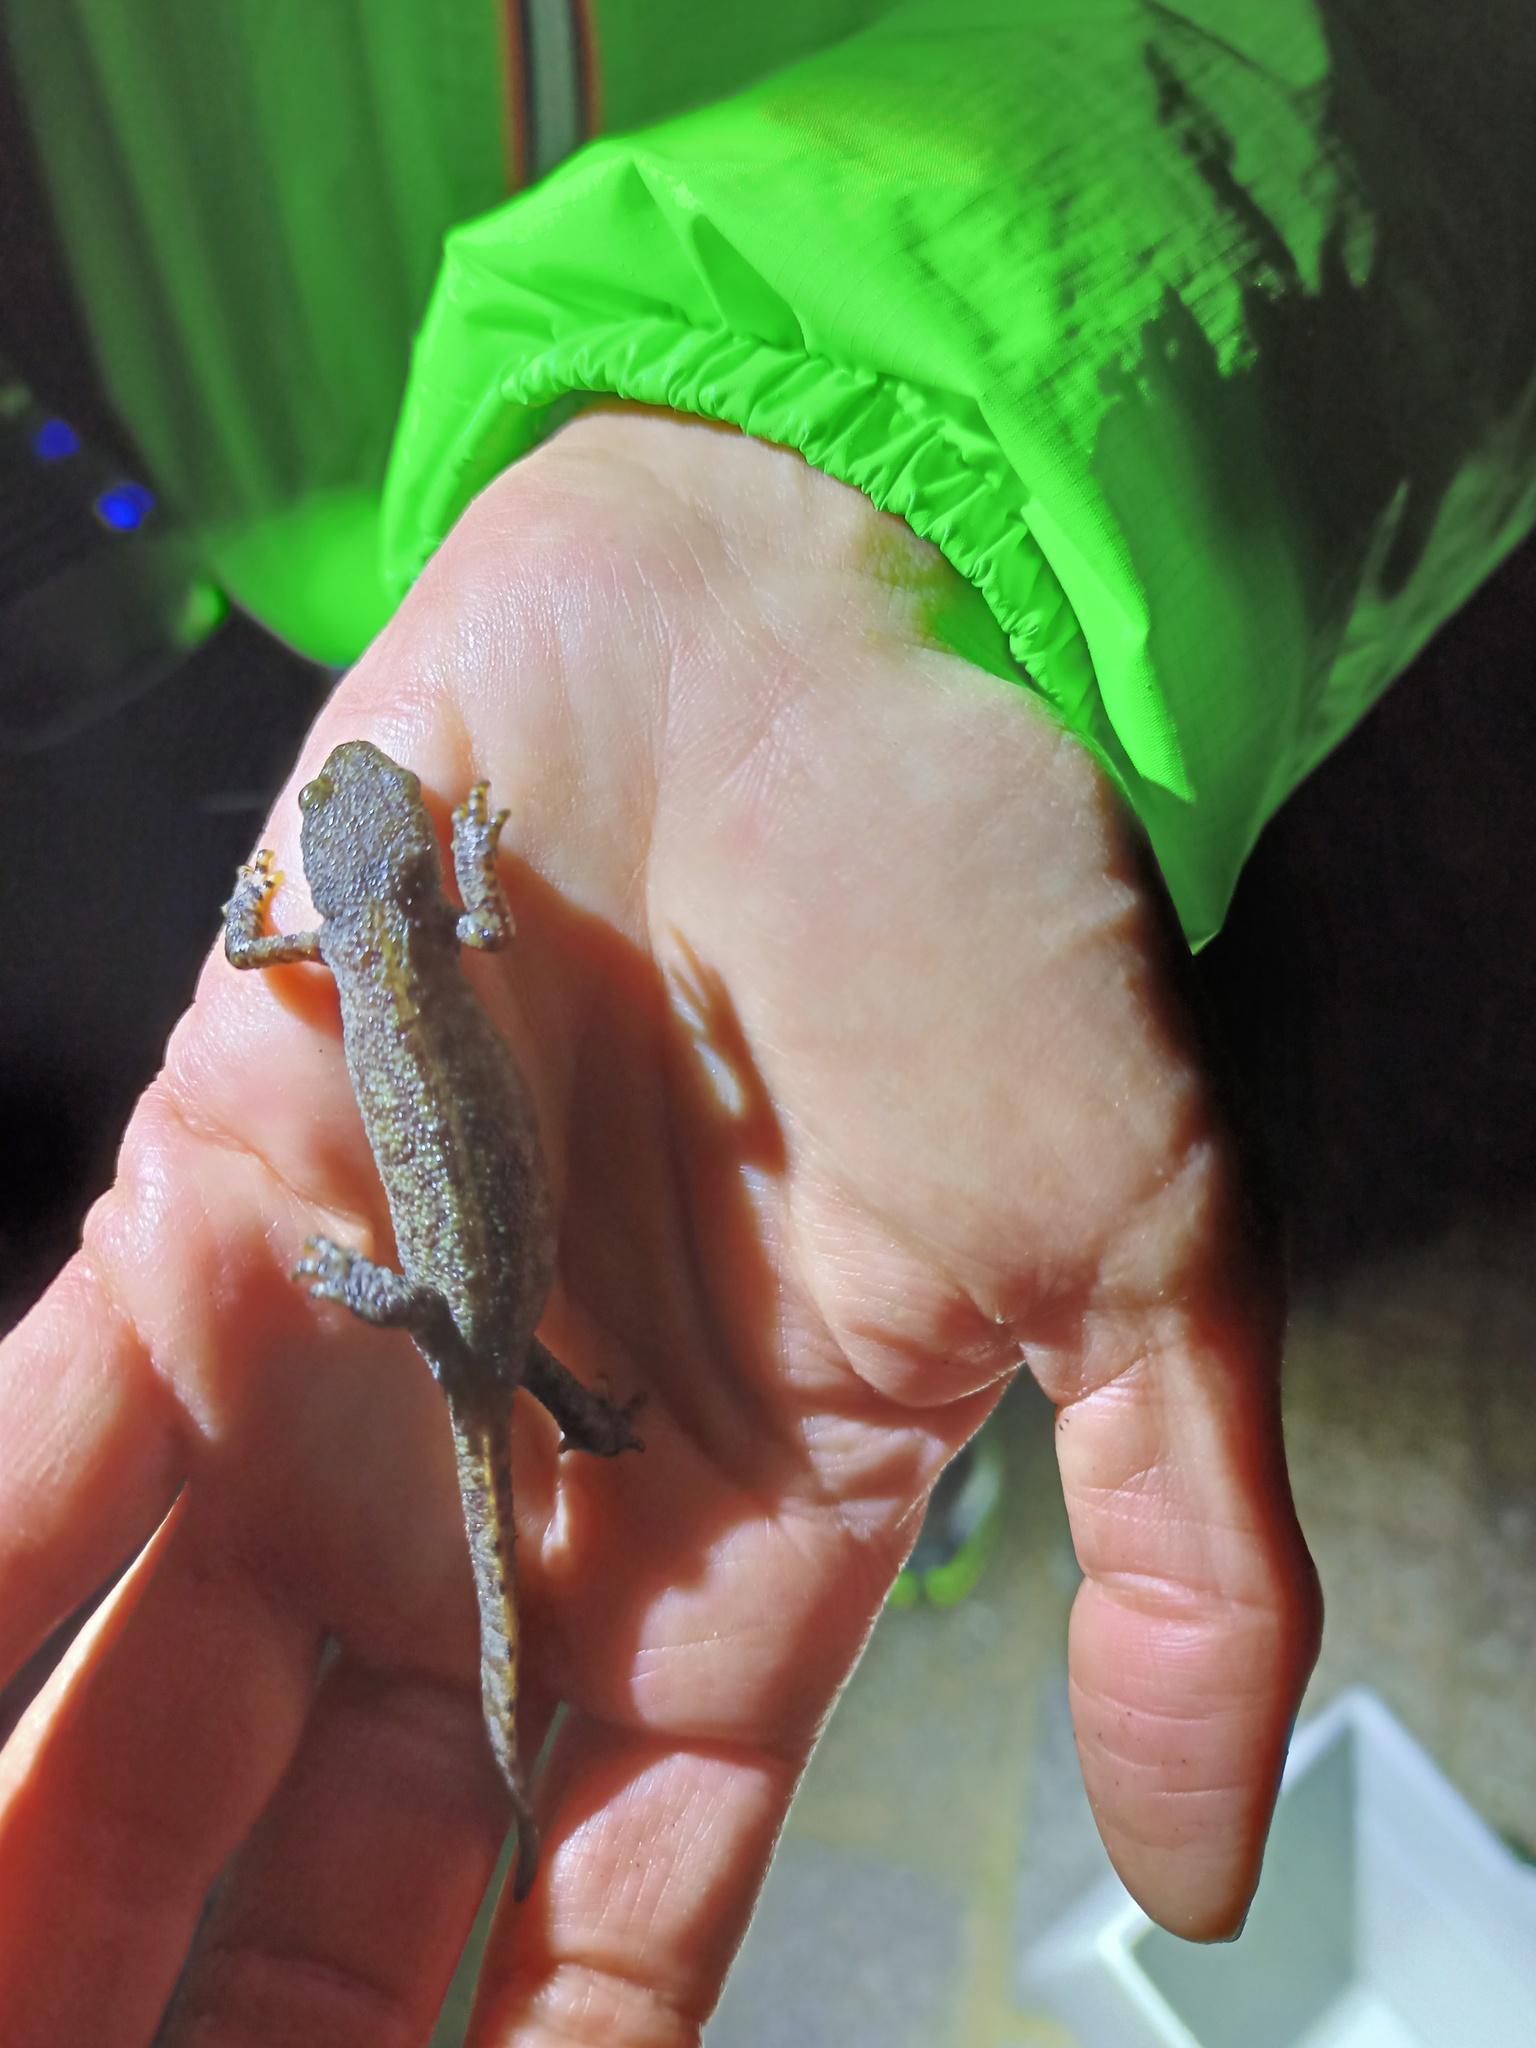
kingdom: Animalia
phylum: Chordata
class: Amphibia
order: Caudata
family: Salamandridae
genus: Ichthyosaura
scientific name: Ichthyosaura alpestris
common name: Alpine newt
